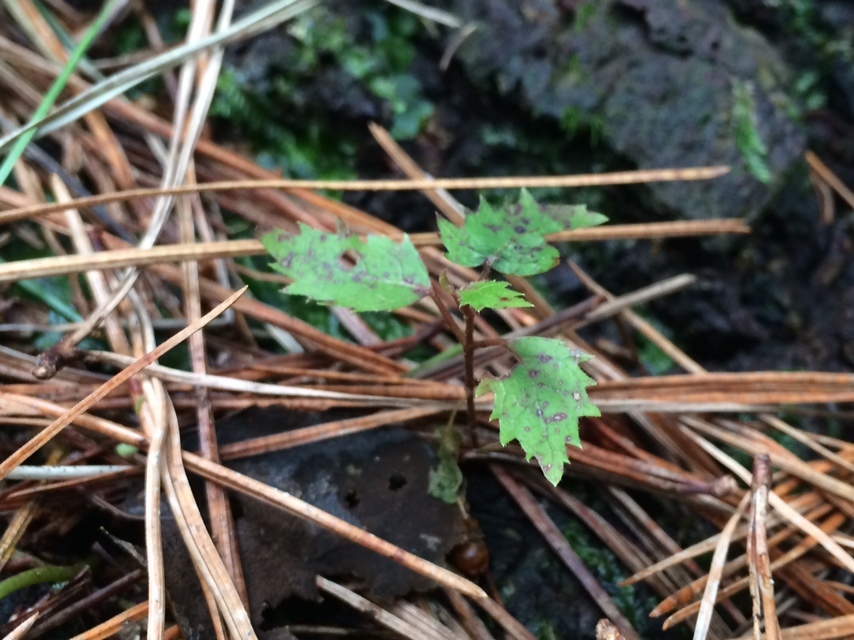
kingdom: Plantae
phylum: Tracheophyta
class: Magnoliopsida
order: Oxalidales
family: Elaeocarpaceae
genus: Aristotelia
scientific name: Aristotelia serrata
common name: New zealand wineberry
